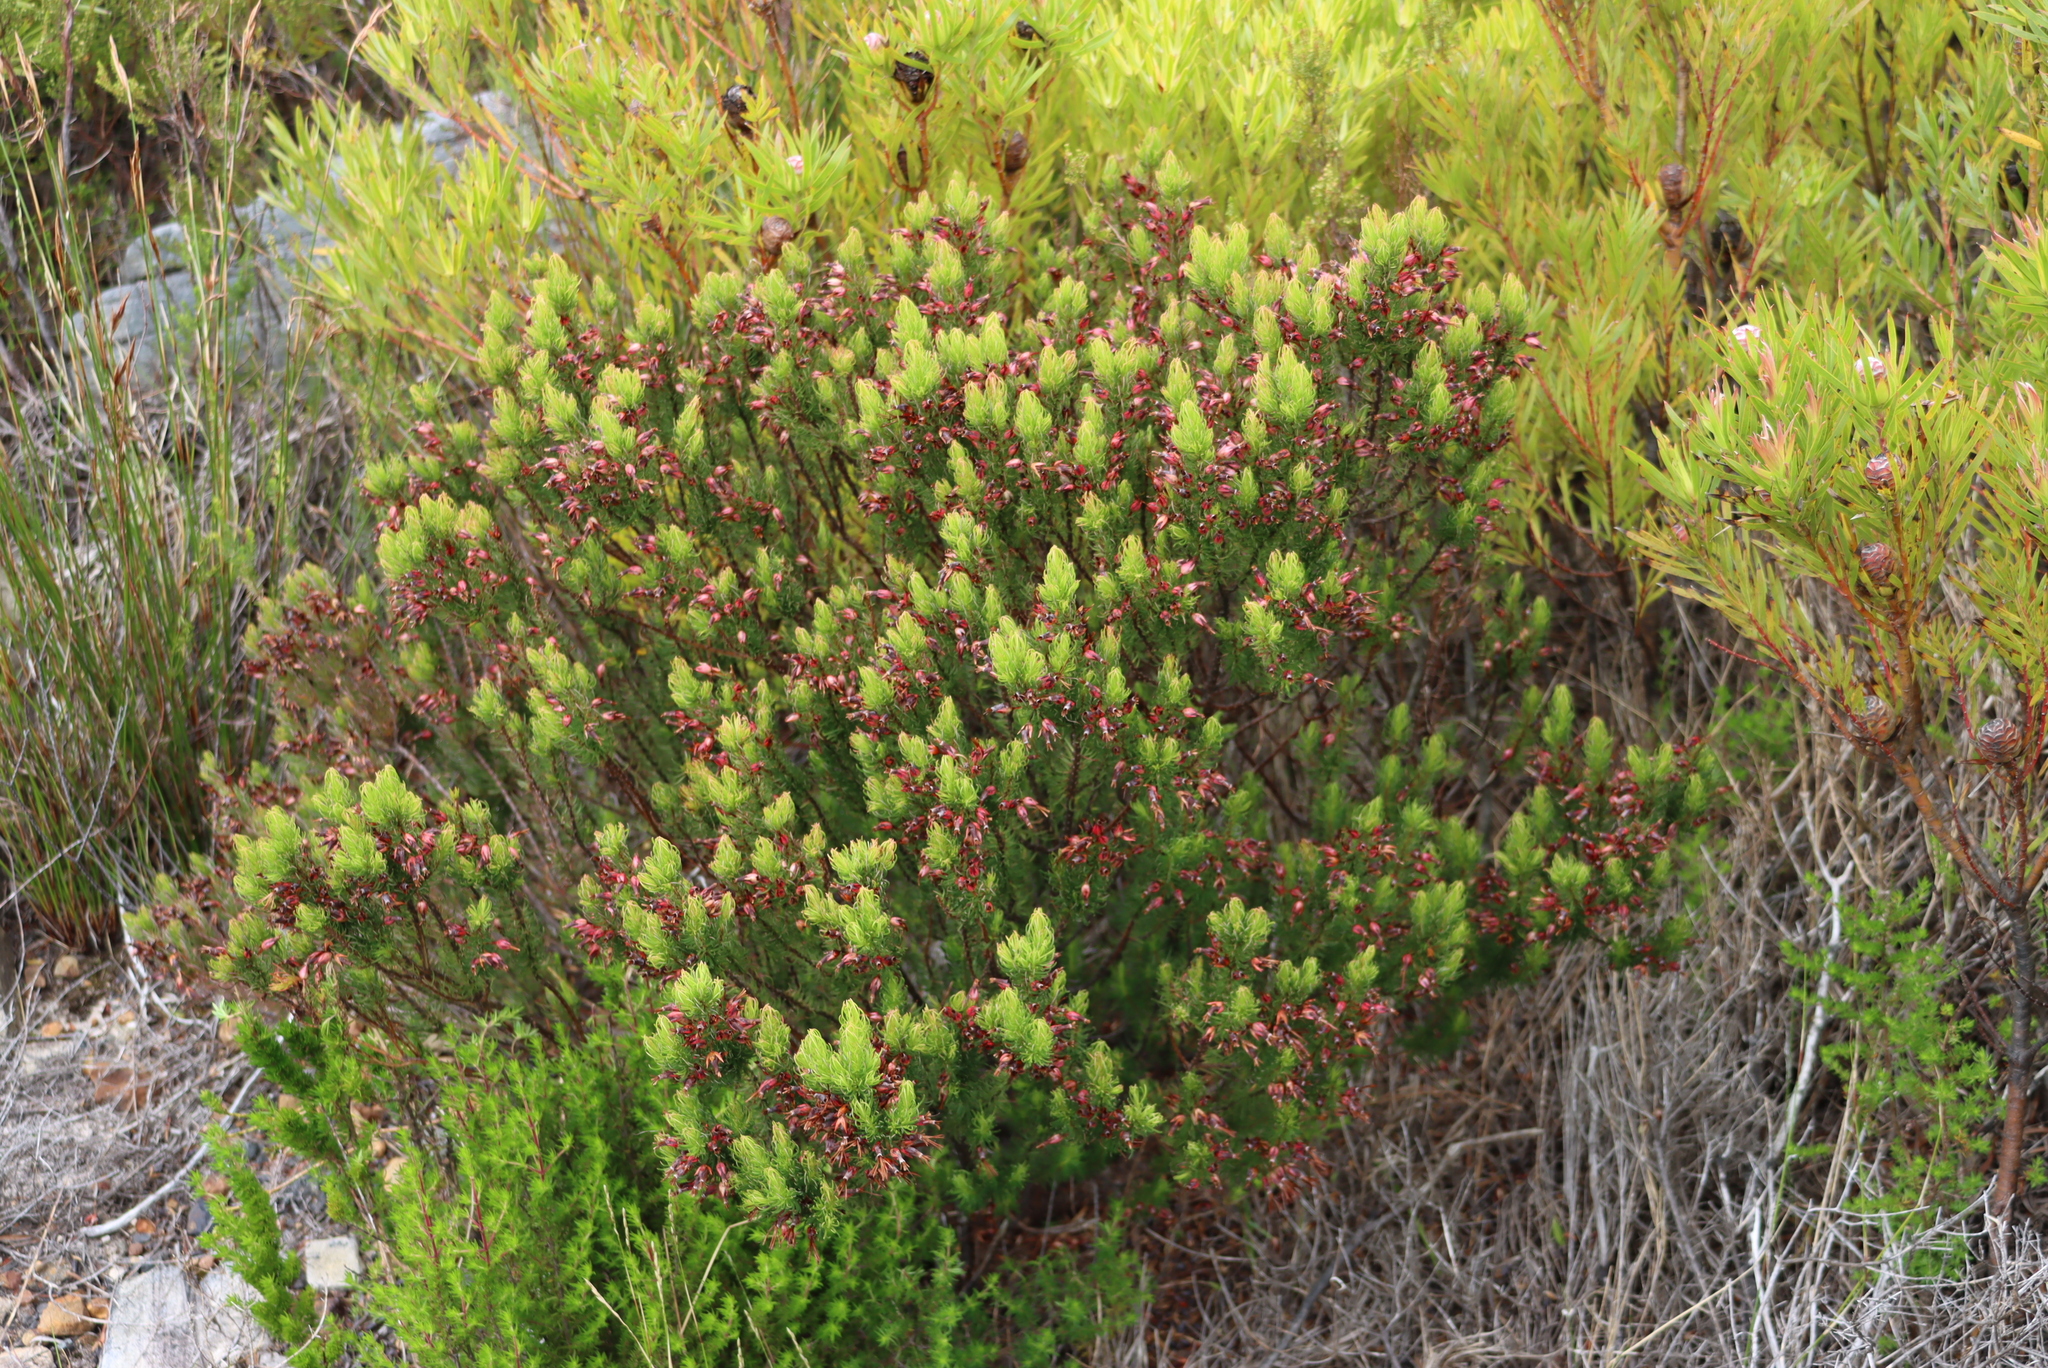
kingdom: Plantae
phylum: Tracheophyta
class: Magnoliopsida
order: Ericales
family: Ericaceae
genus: Erica
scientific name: Erica plukenetii
